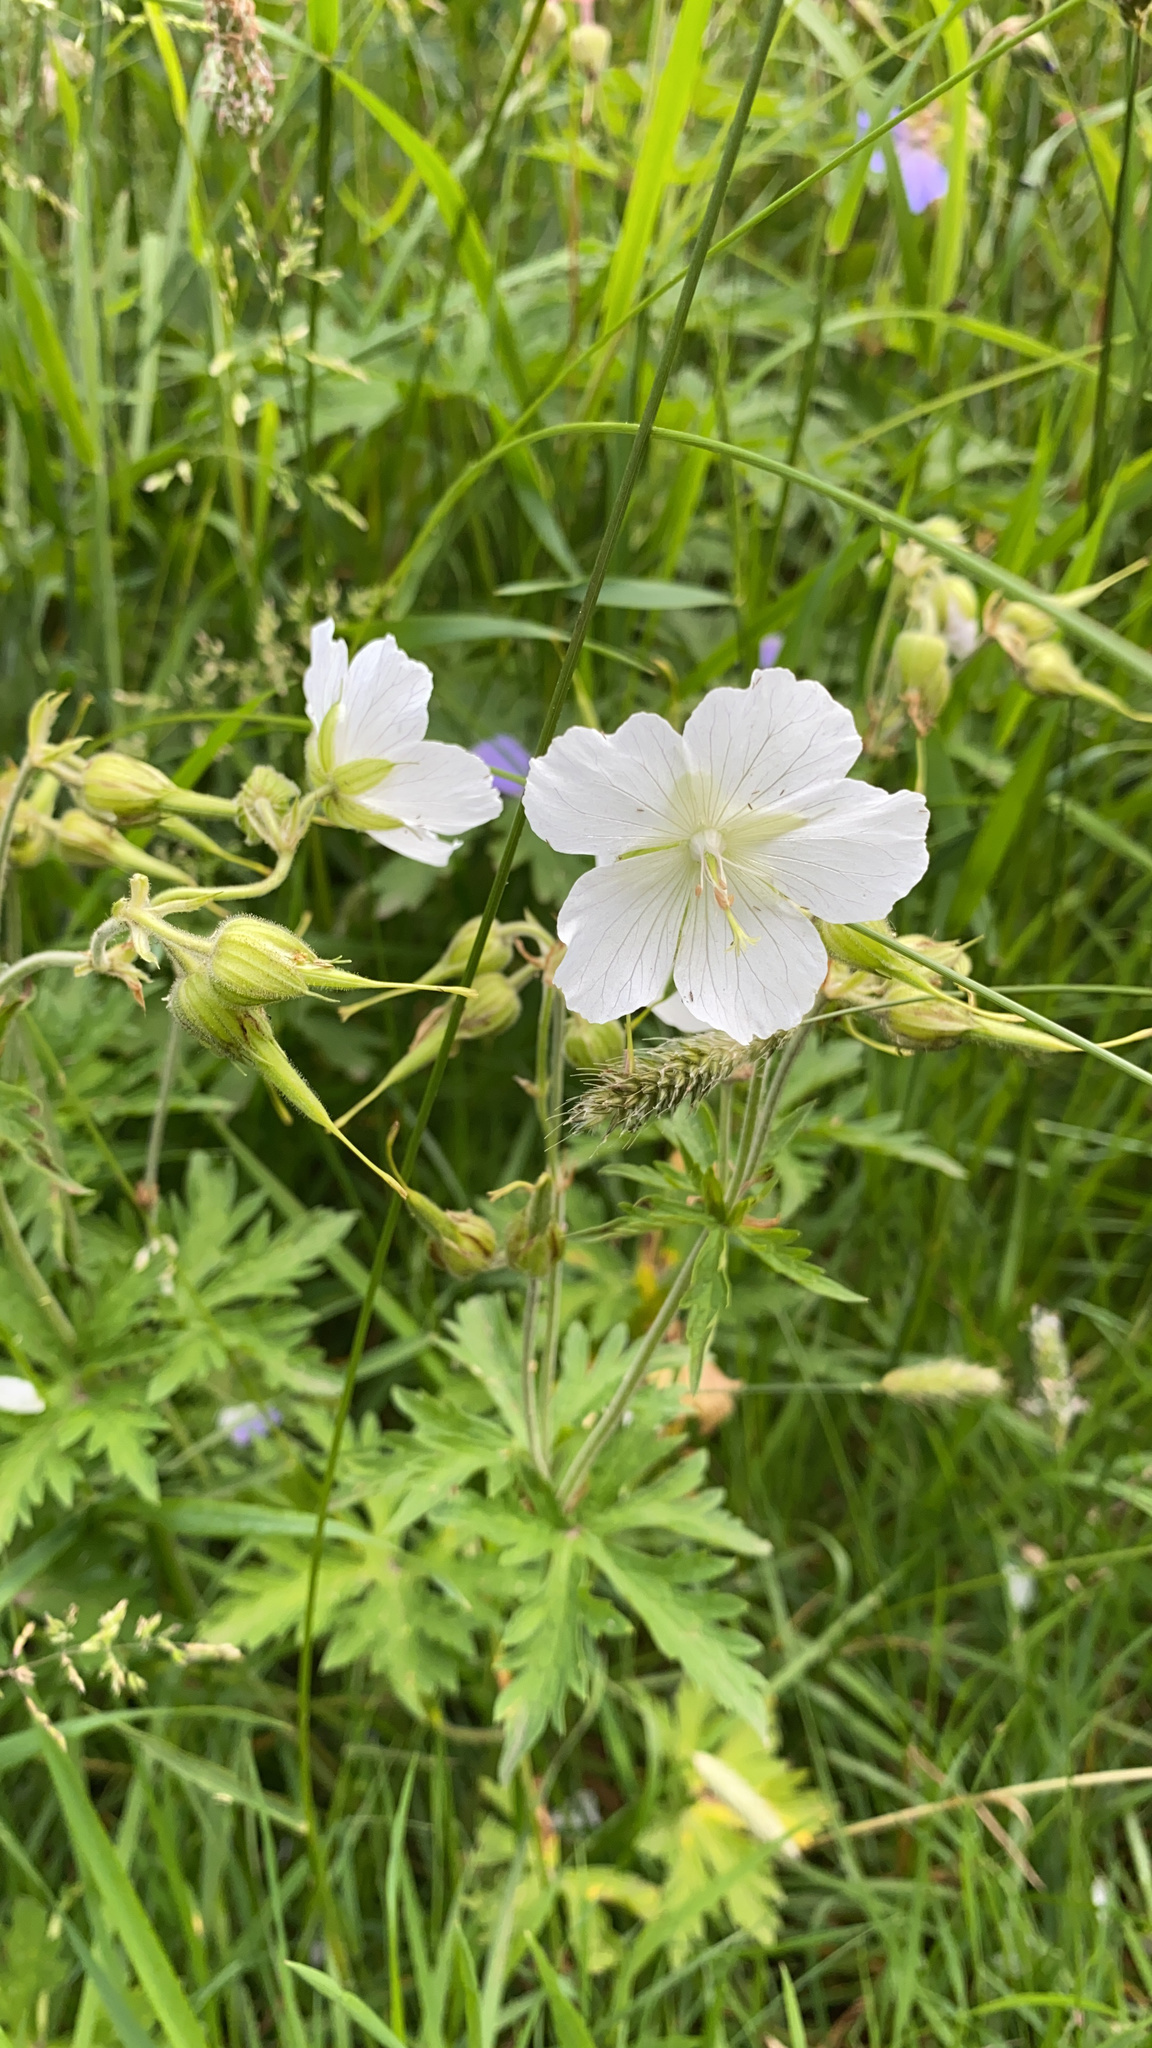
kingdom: Plantae
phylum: Tracheophyta
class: Magnoliopsida
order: Geraniales
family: Geraniaceae
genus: Geranium
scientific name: Geranium pratense
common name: Meadow crane's-bill
